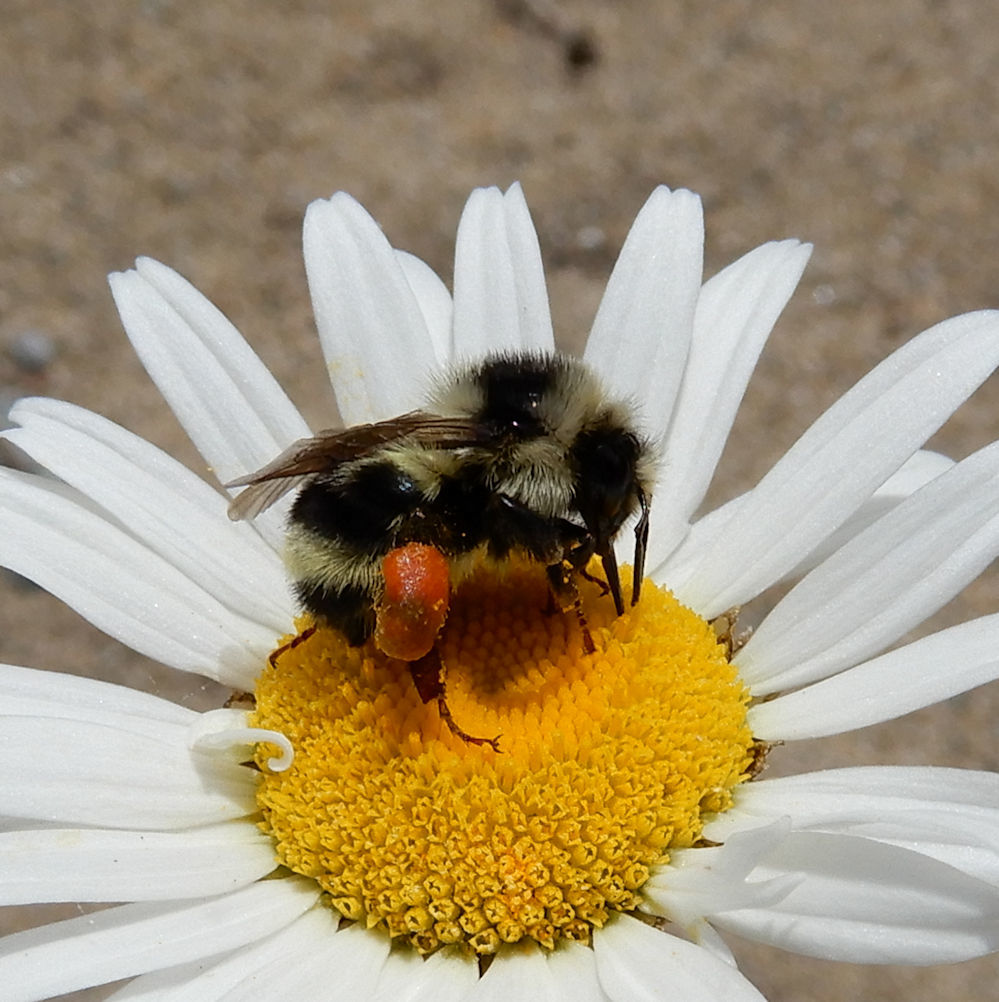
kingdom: Animalia
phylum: Arthropoda
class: Insecta
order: Hymenoptera
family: Apidae
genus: Bombus
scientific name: Bombus vancouverensis
